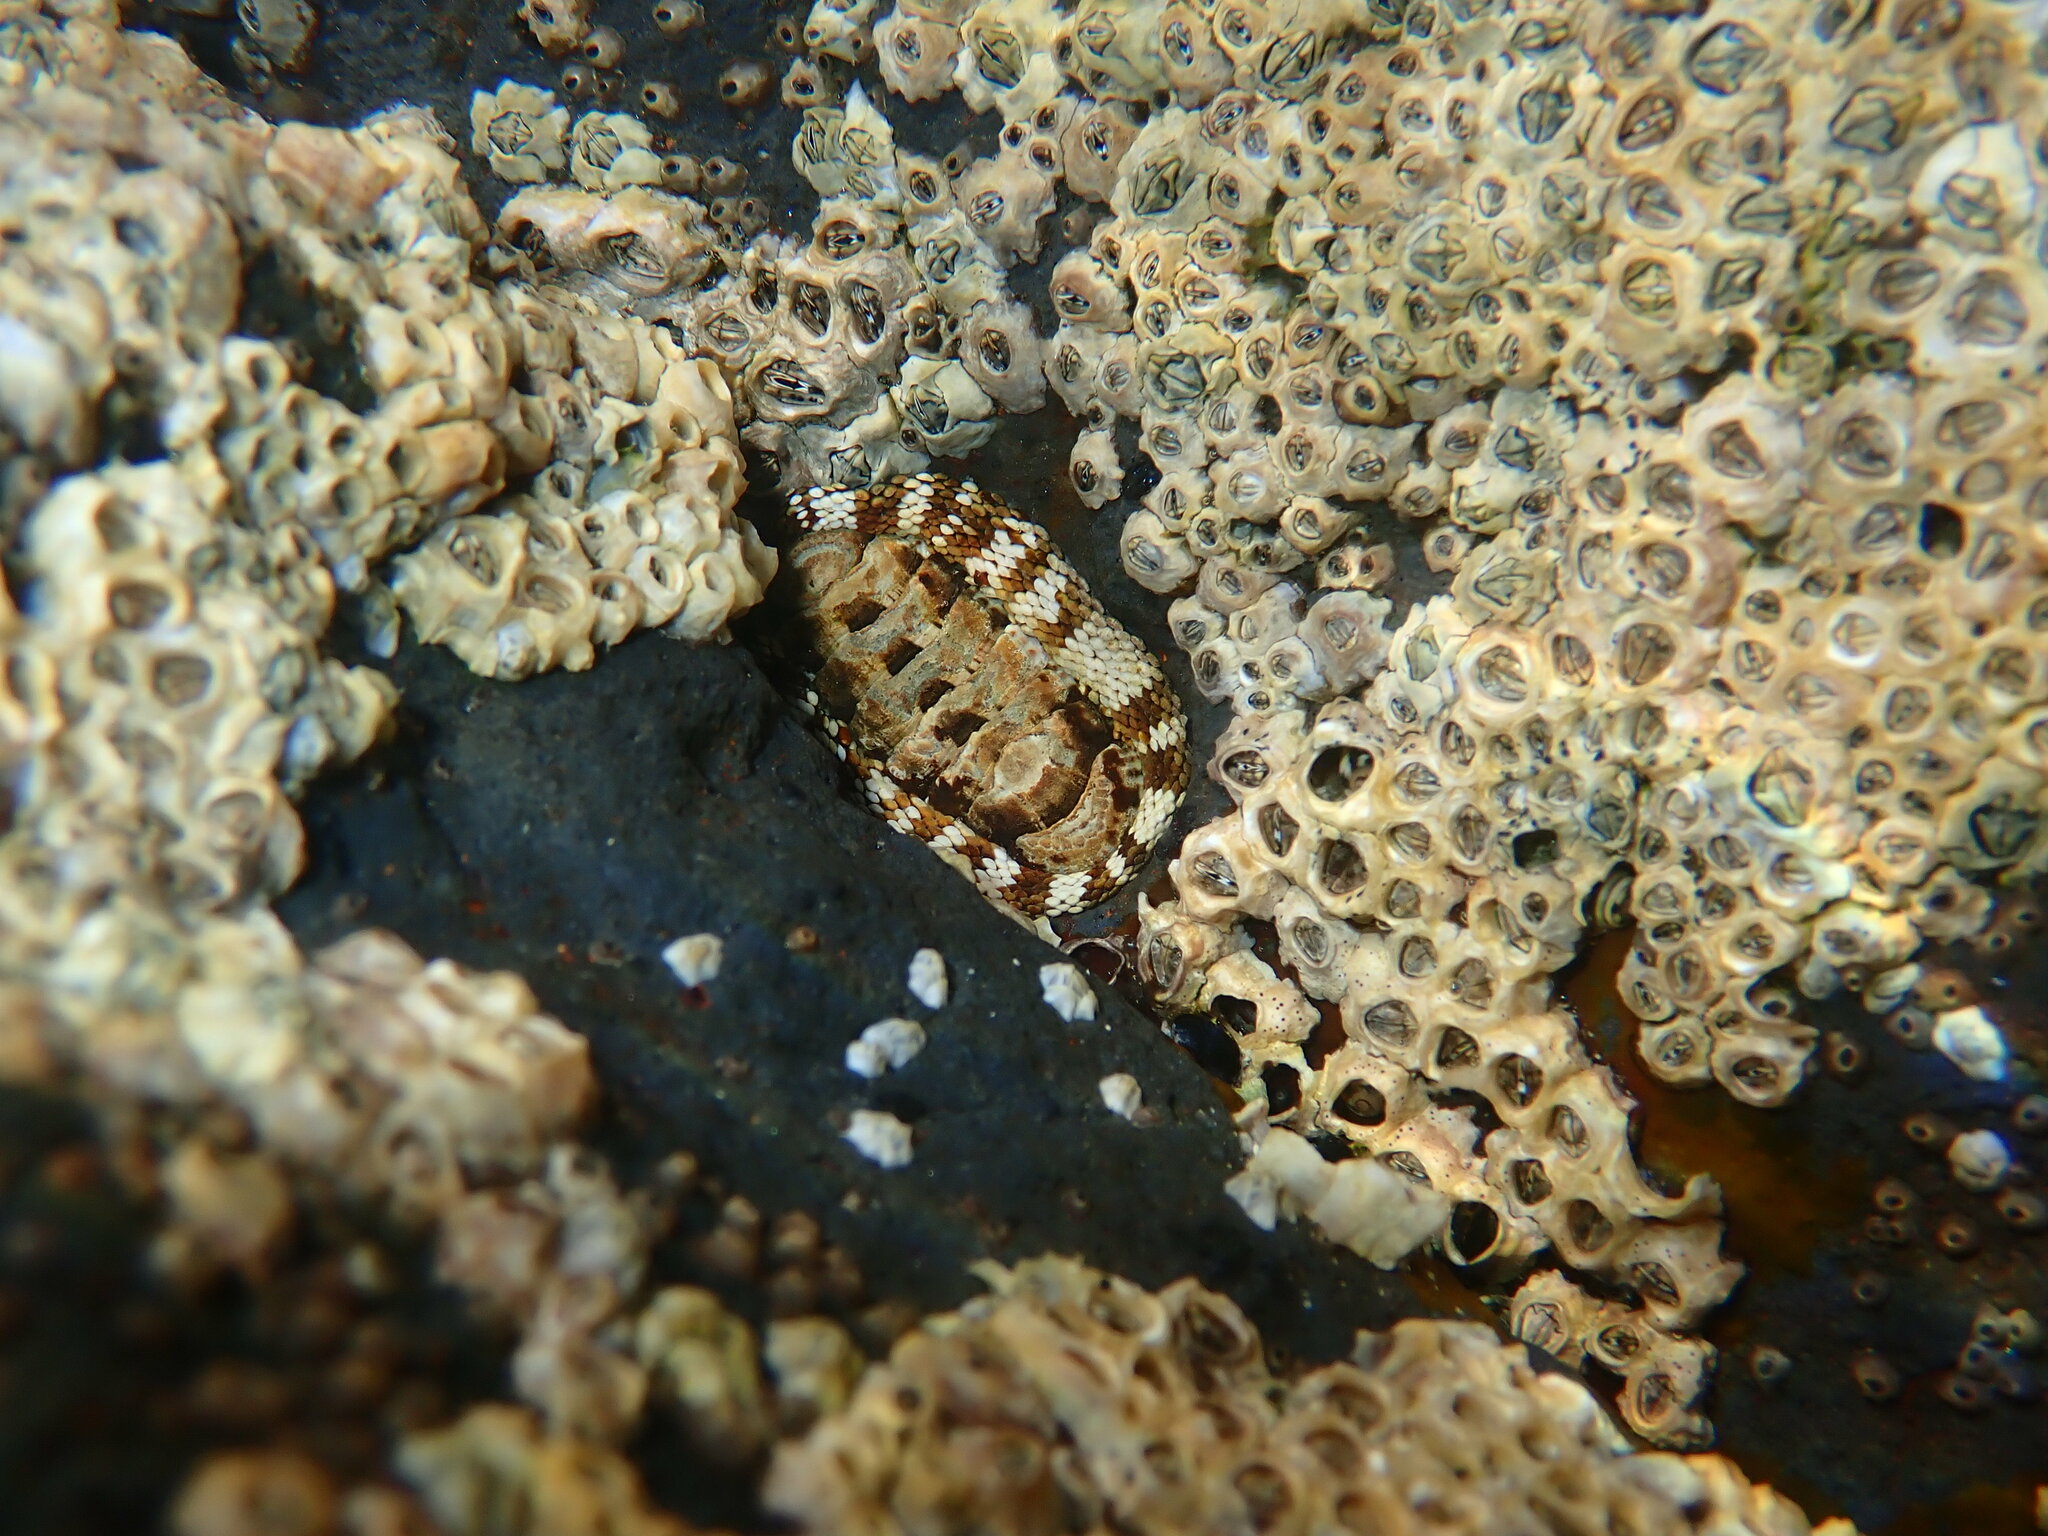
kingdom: Animalia
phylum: Mollusca
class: Polyplacophora
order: Chitonida
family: Chitonidae
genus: Sypharochiton
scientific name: Sypharochiton pelliserpentis
